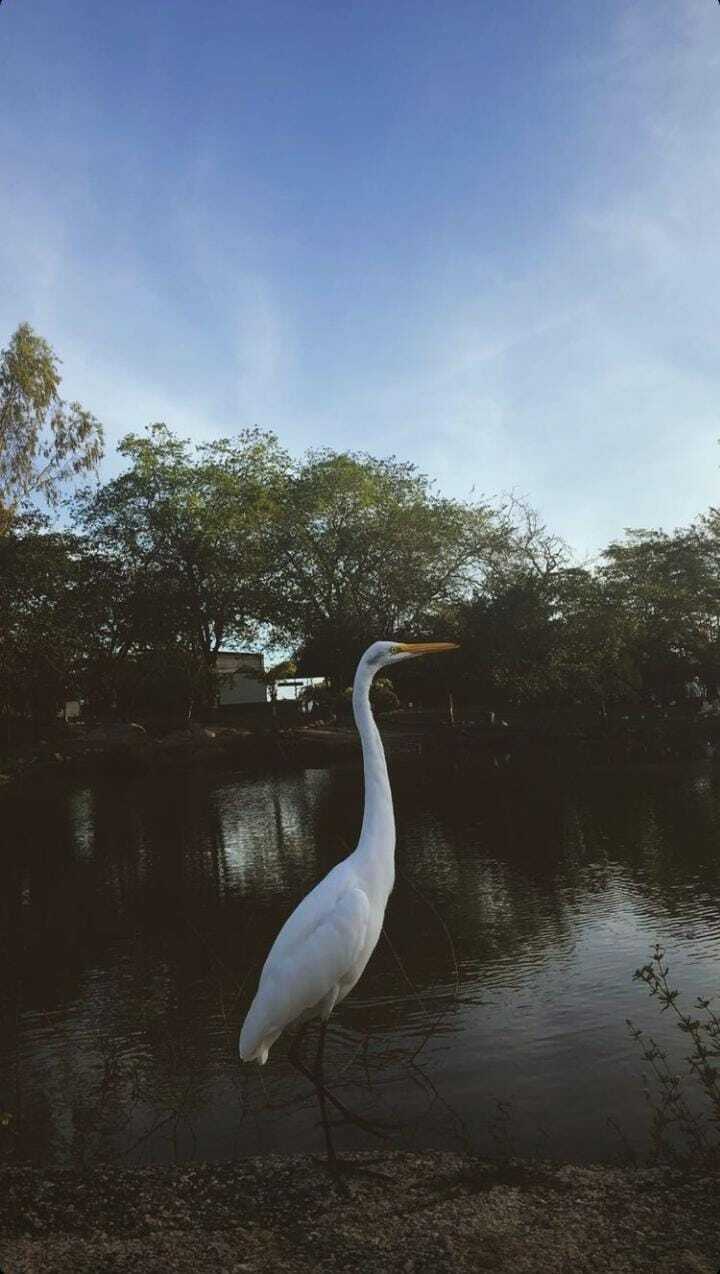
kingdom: Animalia
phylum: Chordata
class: Aves
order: Pelecaniformes
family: Ardeidae
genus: Ardea
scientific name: Ardea alba
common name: Great egret
